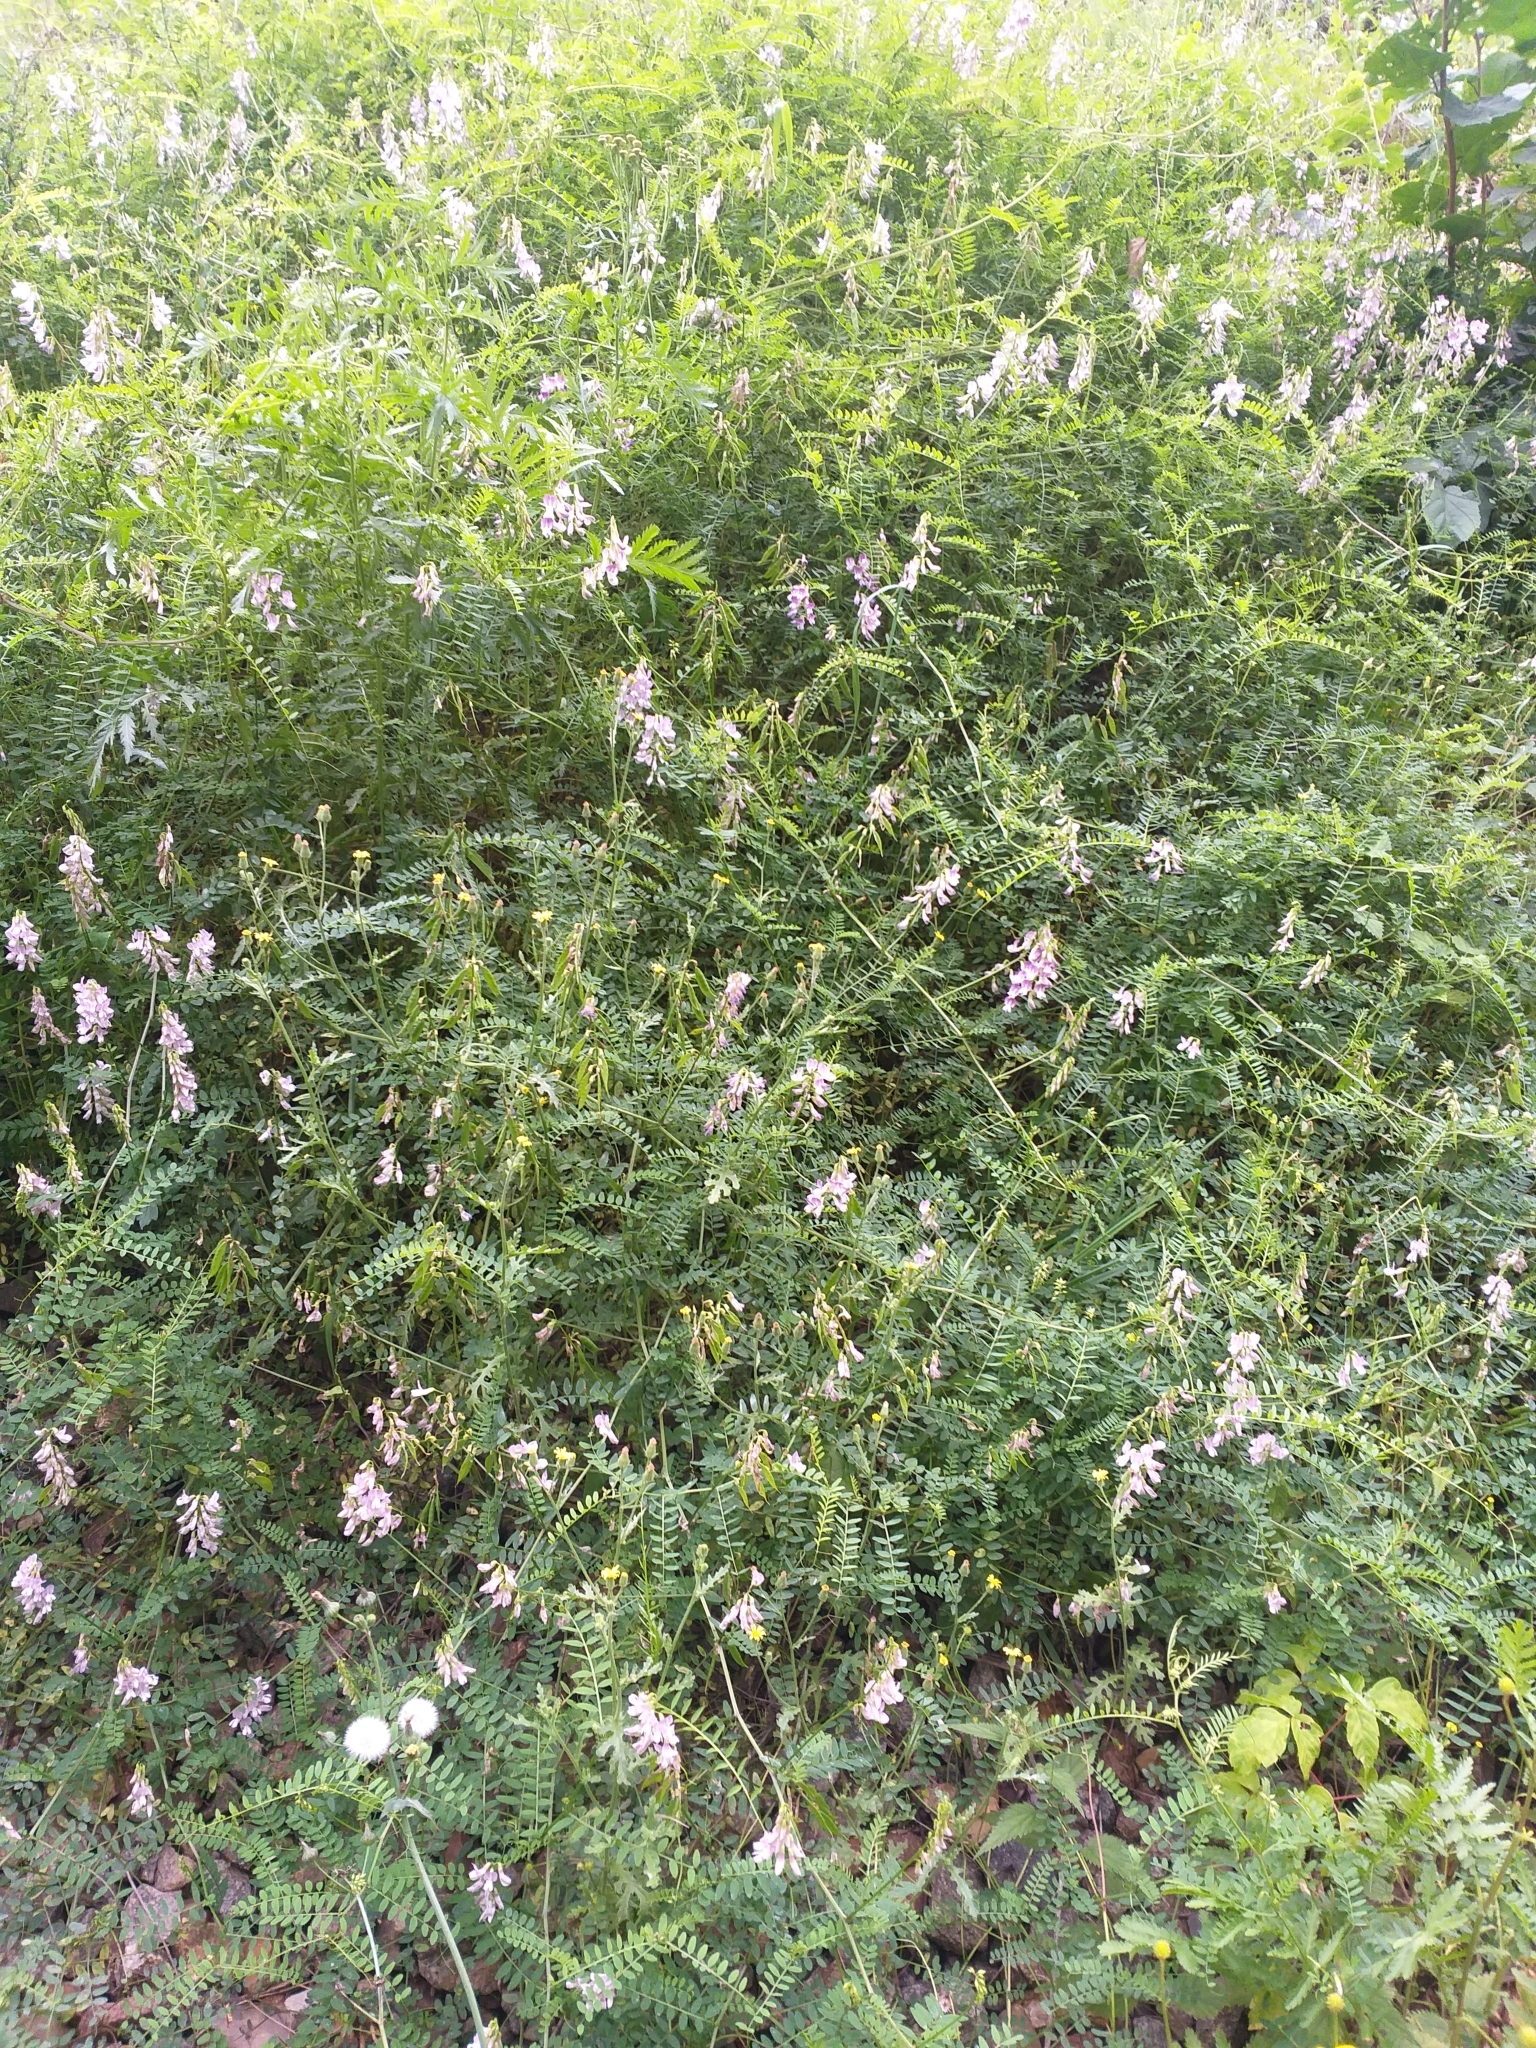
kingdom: Plantae
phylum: Tracheophyta
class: Magnoliopsida
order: Fabales
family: Fabaceae
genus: Vicia
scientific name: Vicia sylvatica
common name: Wood vetch
